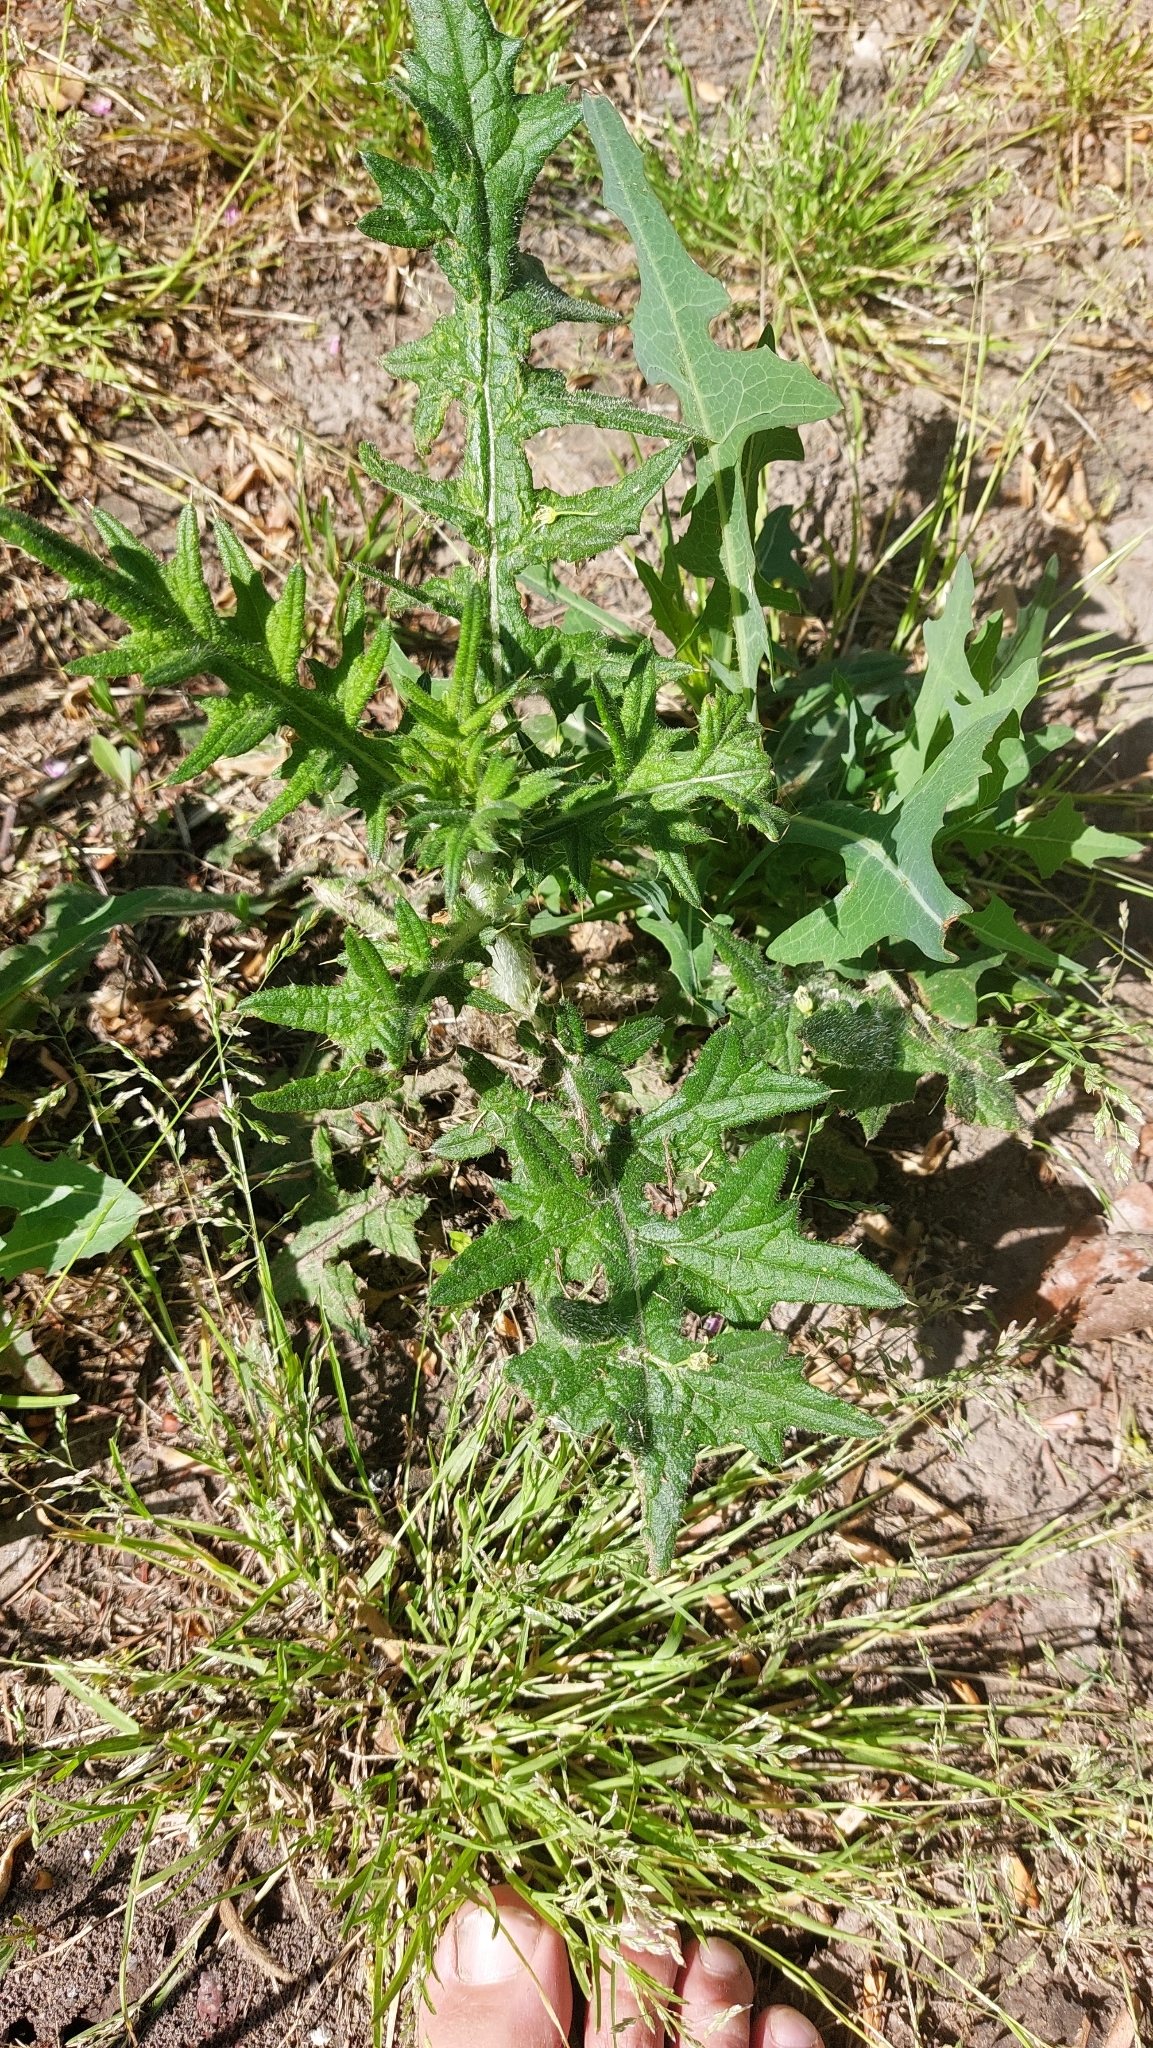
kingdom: Plantae
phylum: Tracheophyta
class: Magnoliopsida
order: Asterales
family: Asteraceae
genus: Cirsium
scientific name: Cirsium vulgare
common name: Bull thistle
